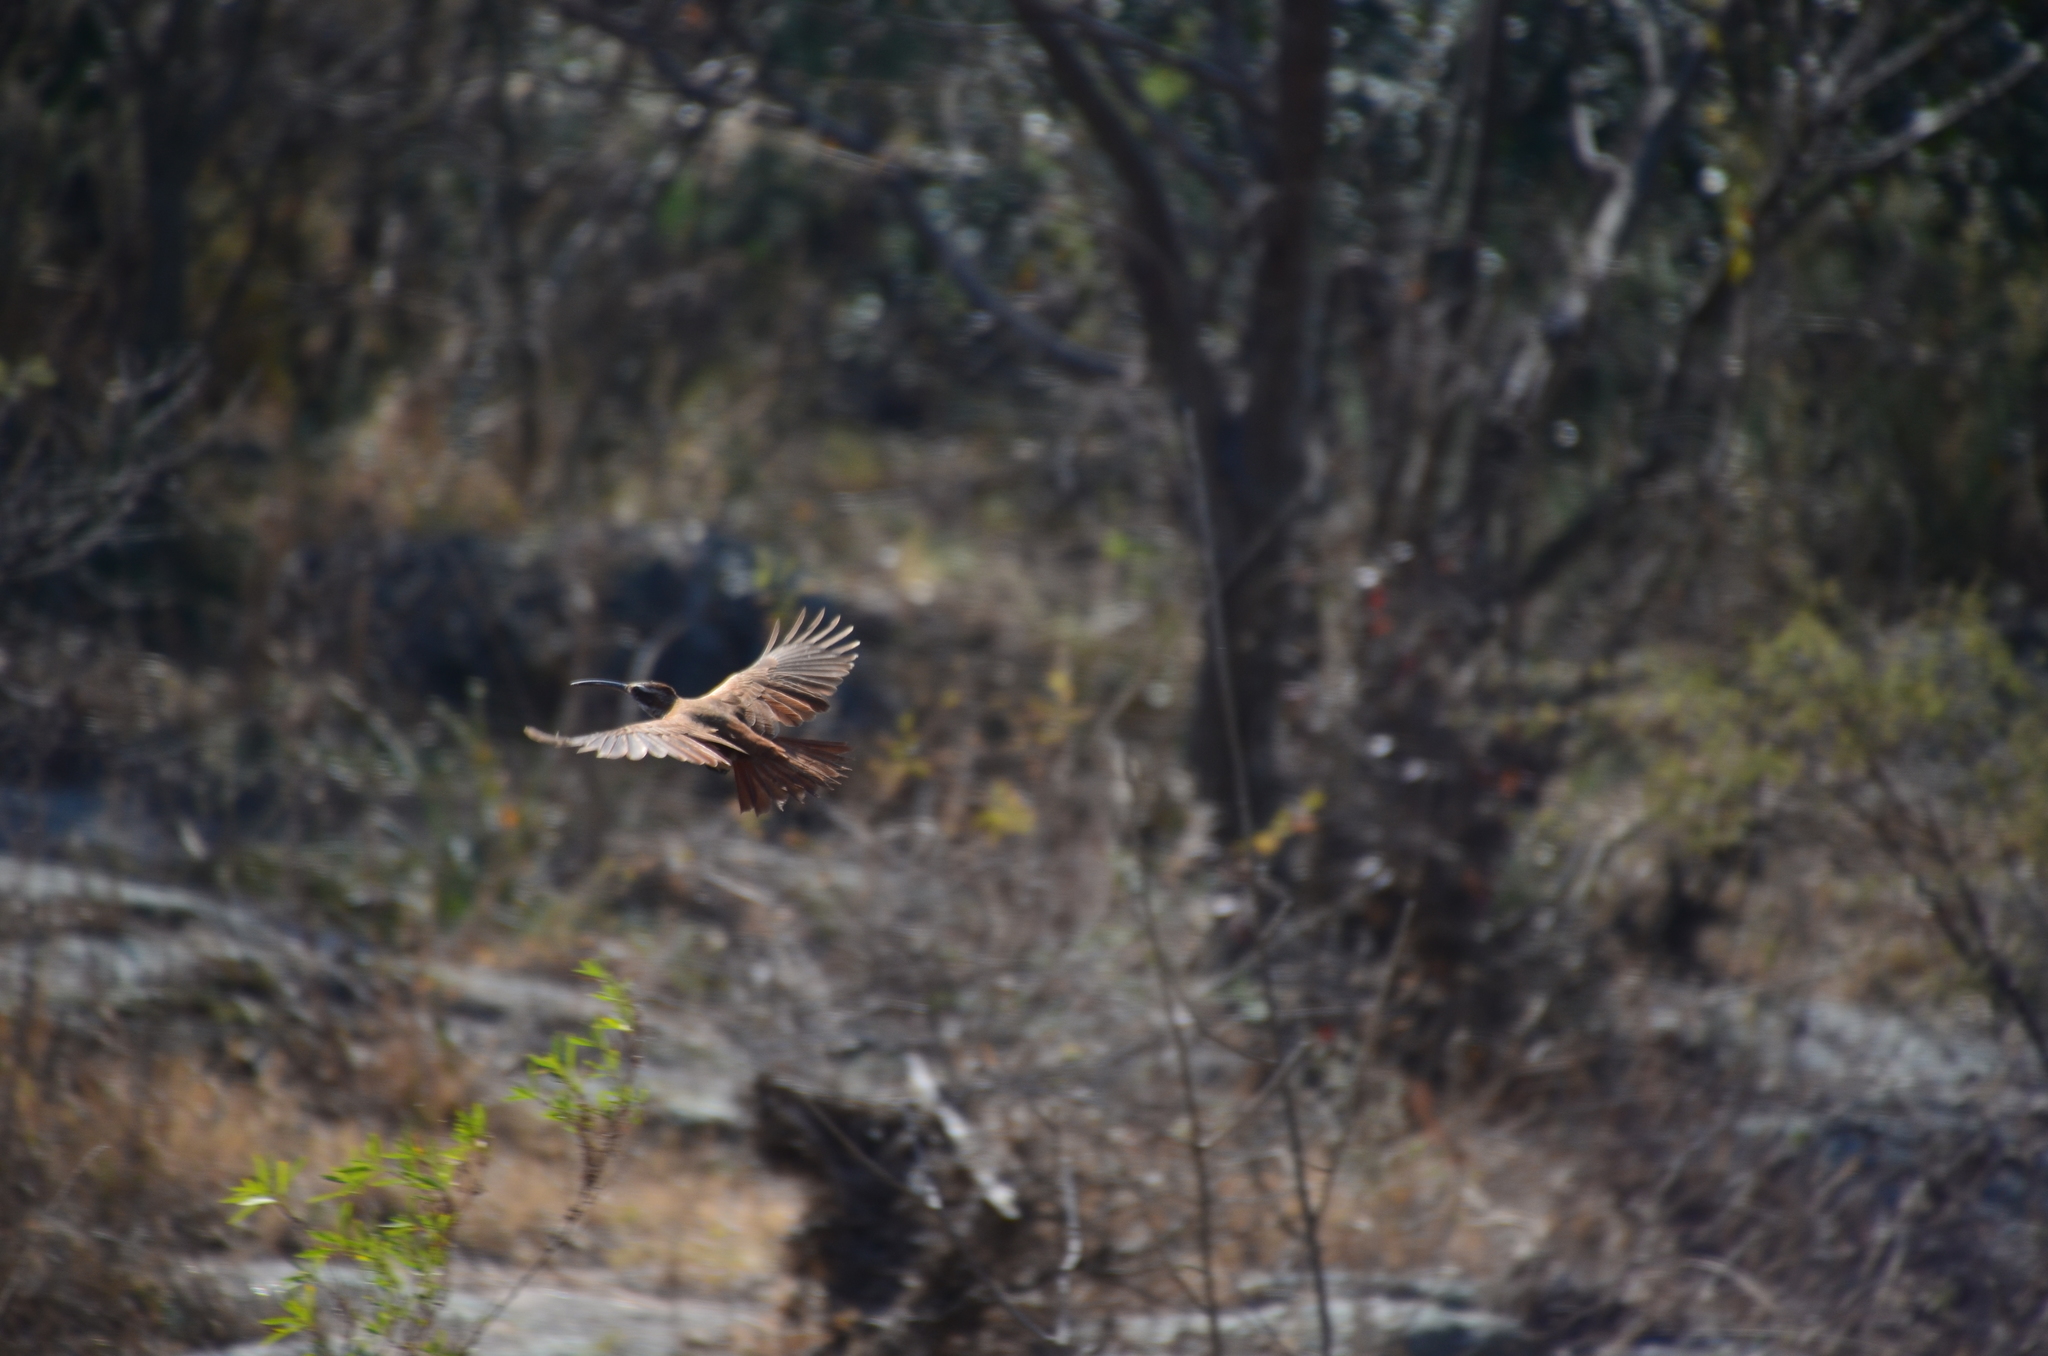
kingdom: Animalia
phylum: Chordata
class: Aves
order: Passeriformes
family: Furnariidae
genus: Drymornis
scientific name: Drymornis bridgesii
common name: Scimitar-billed woodcreeper
